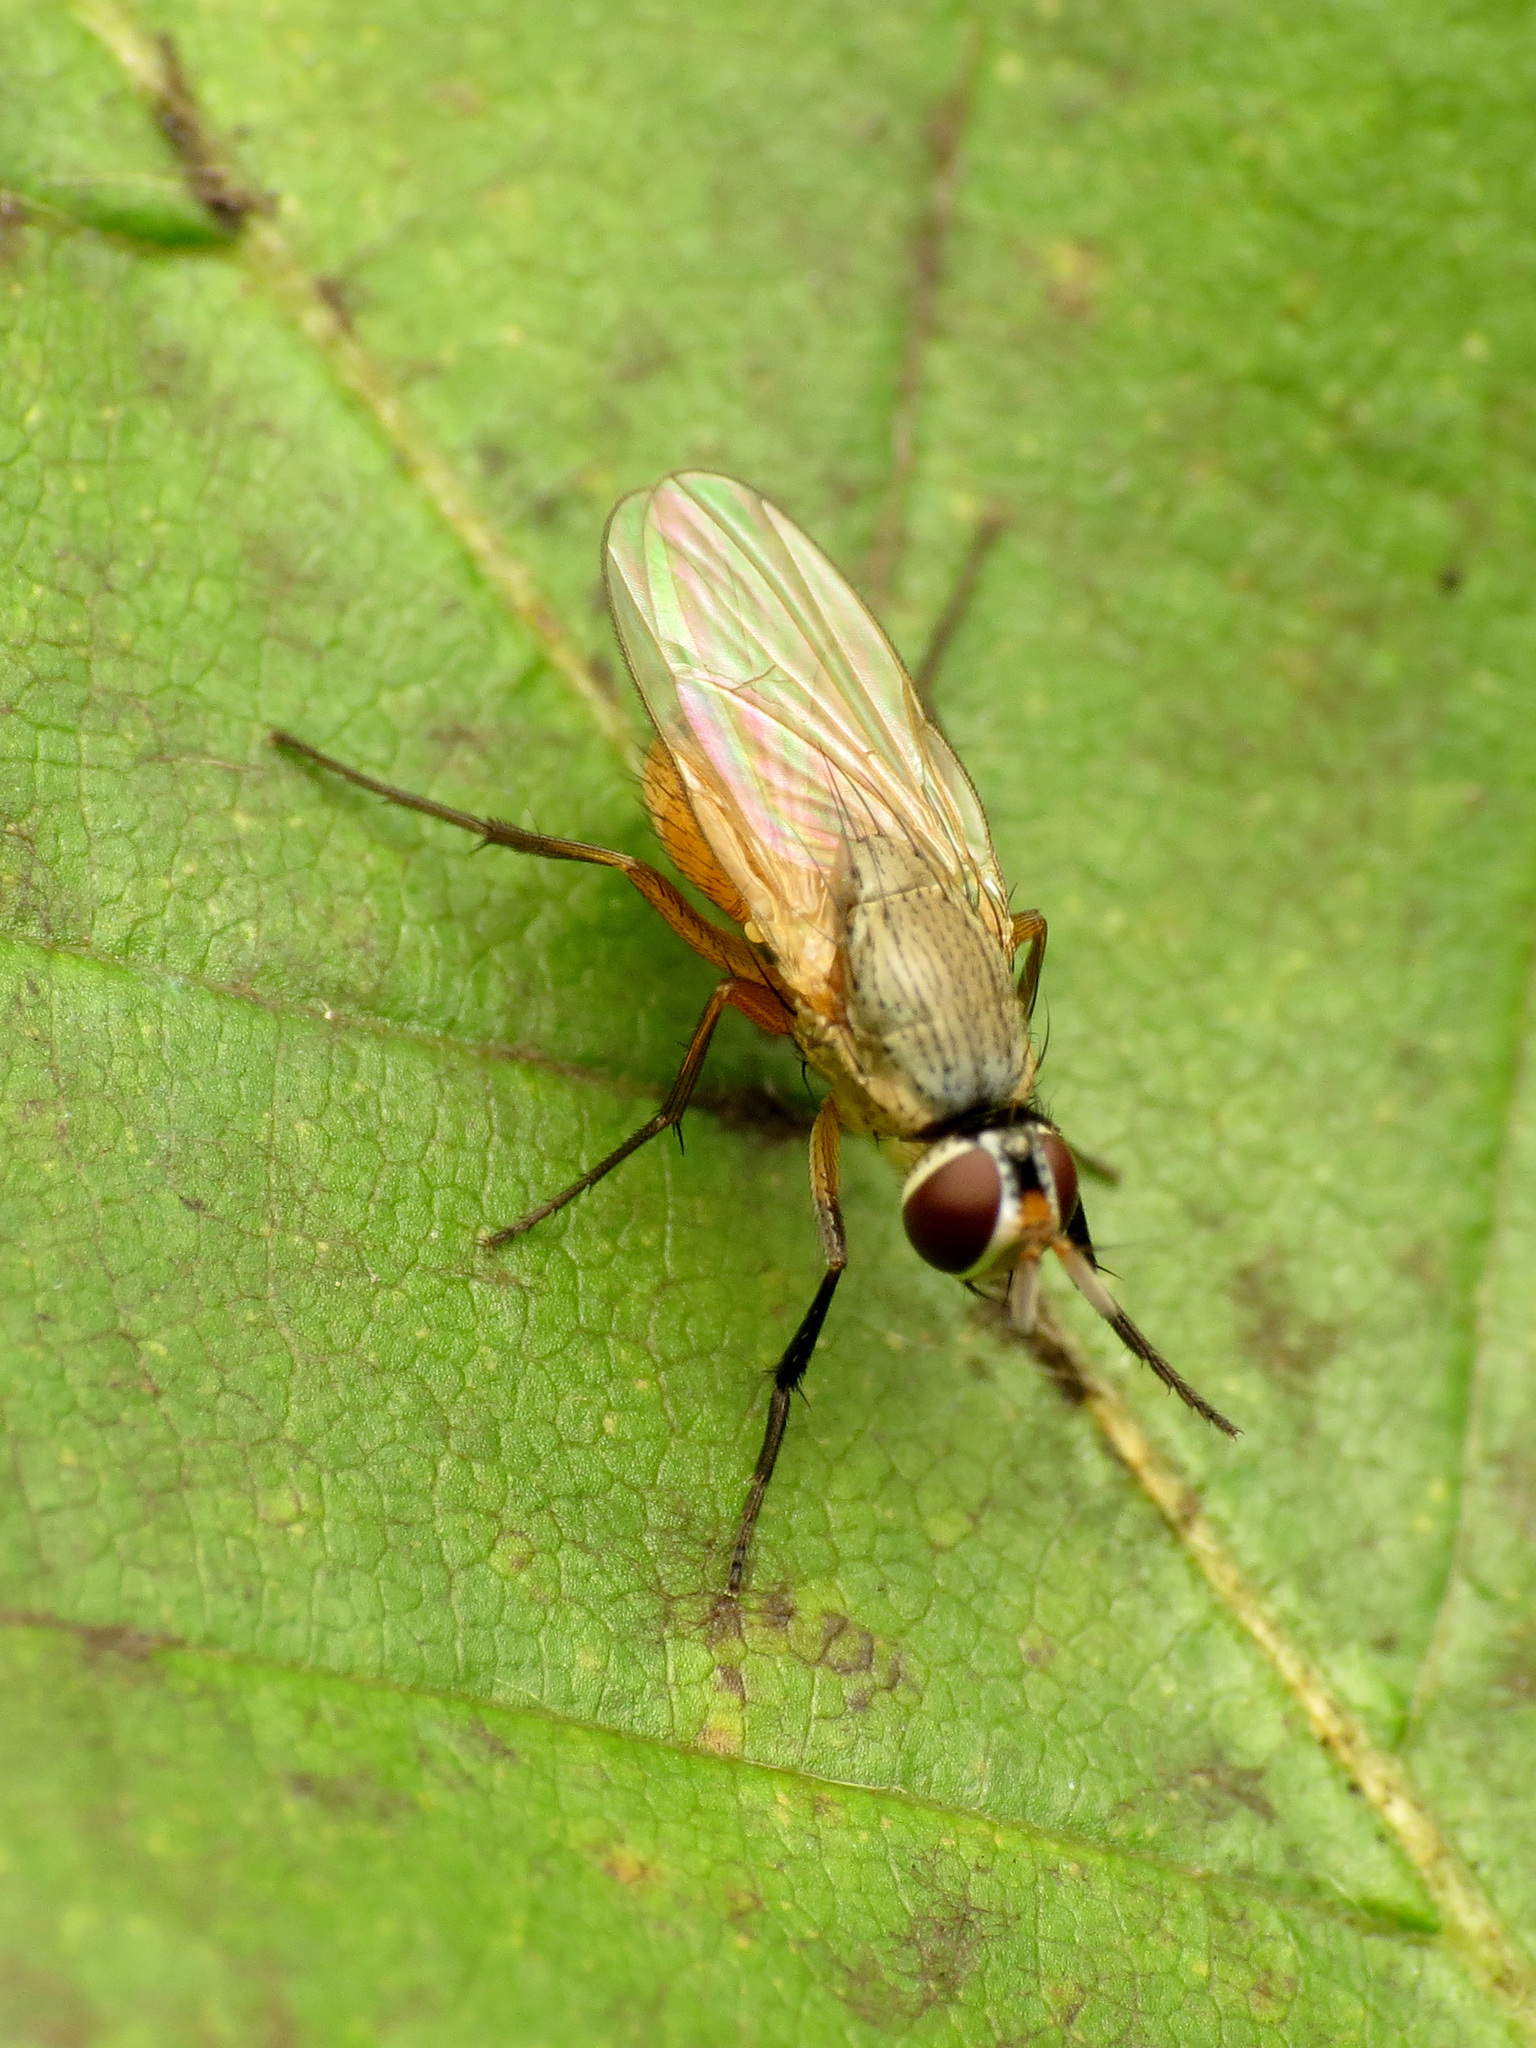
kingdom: Animalia
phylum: Arthropoda
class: Insecta
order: Diptera
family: Muscidae
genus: Atherigona
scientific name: Atherigona reversura
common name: Bermudagrass stem maggot
